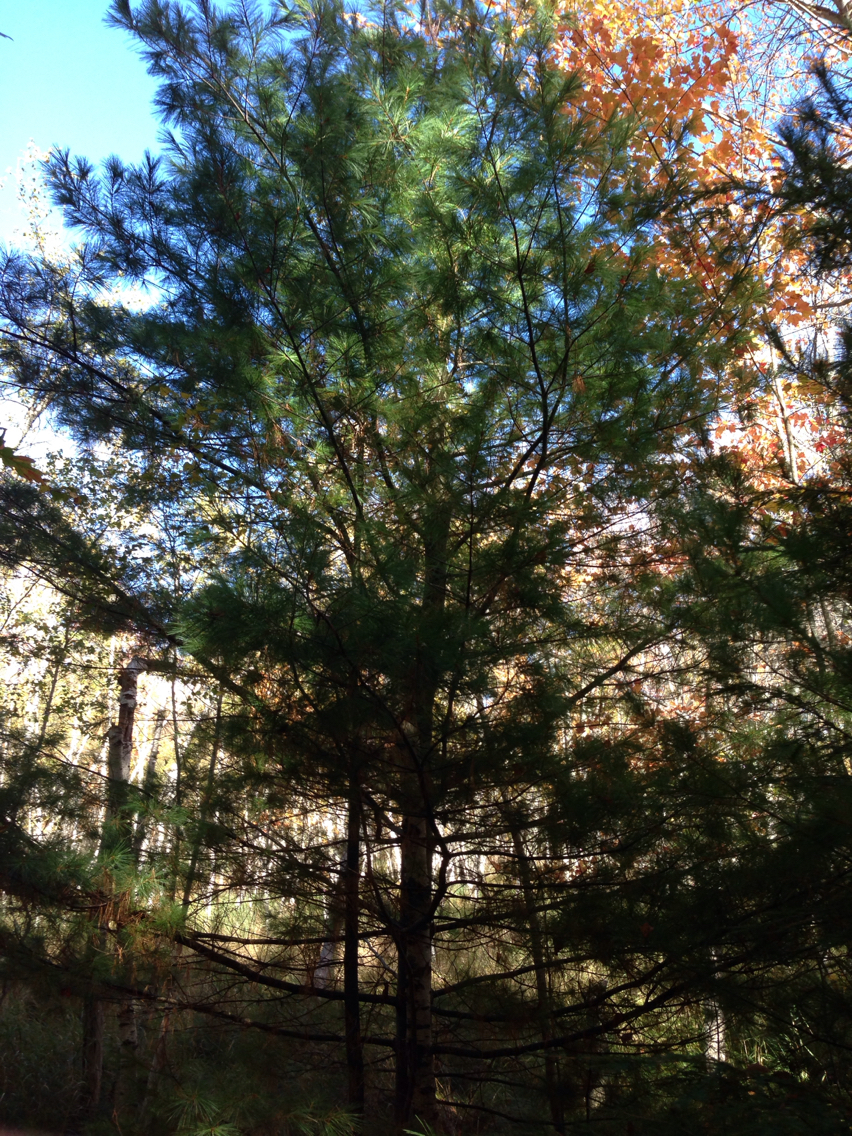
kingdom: Plantae
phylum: Tracheophyta
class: Pinopsida
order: Pinales
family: Pinaceae
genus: Pinus
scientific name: Pinus strobus
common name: Weymouth pine
